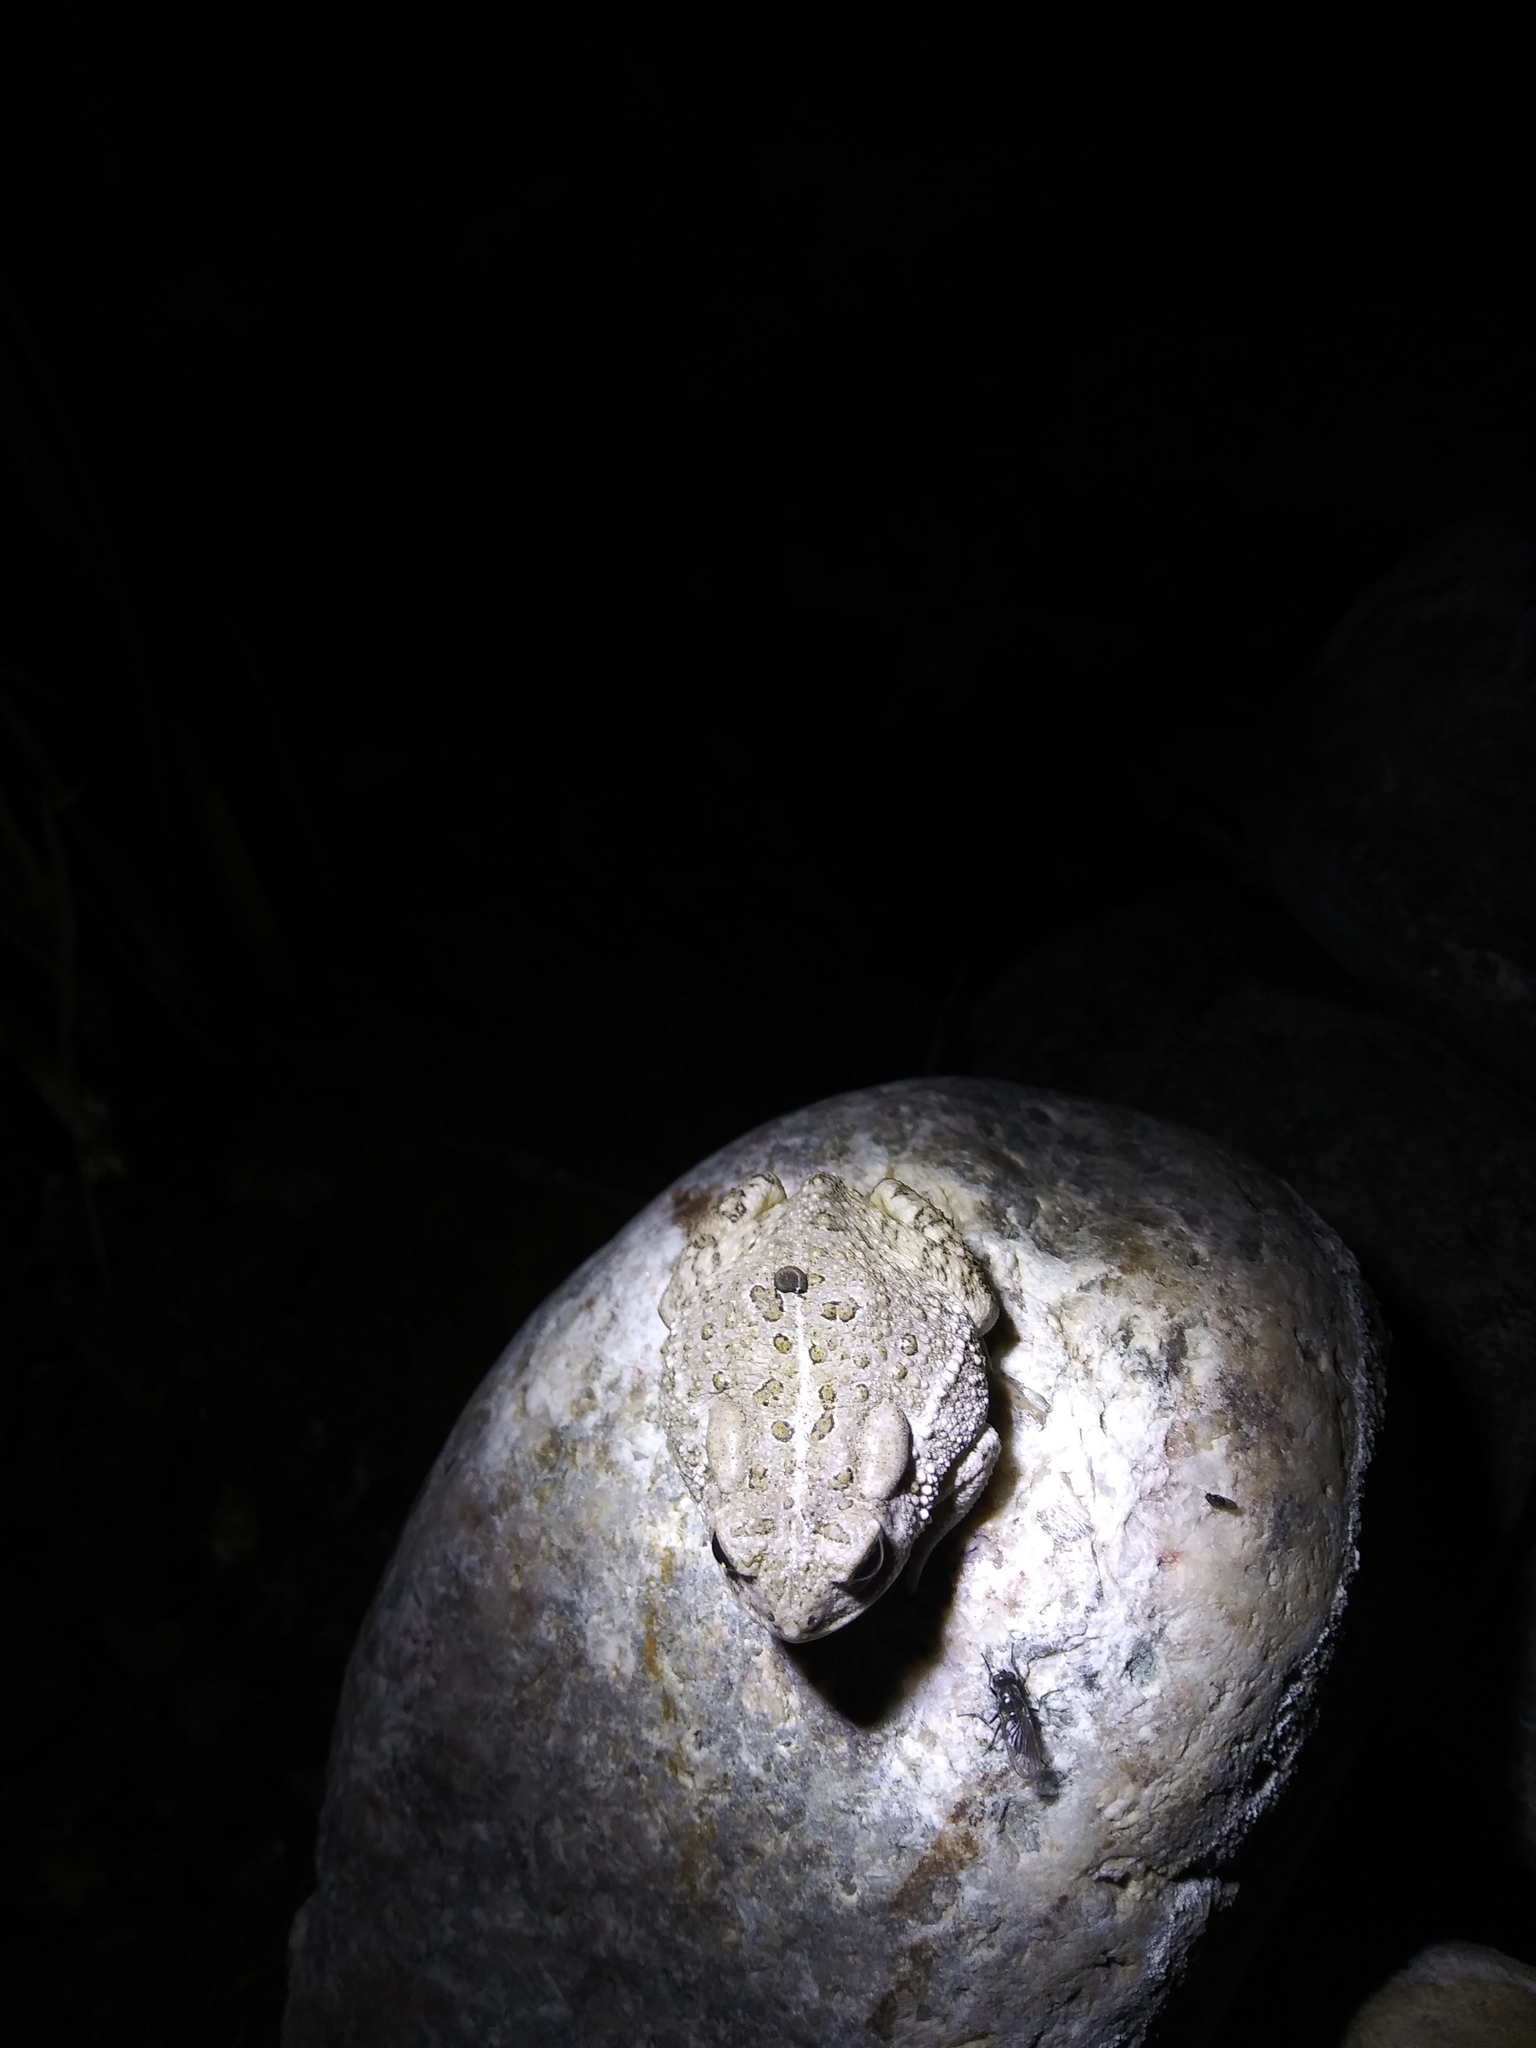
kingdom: Animalia
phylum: Chordata
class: Amphibia
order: Anura
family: Bufonidae
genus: Anaxyrus
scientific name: Anaxyrus woodhousii
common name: Woodhouse's toad
